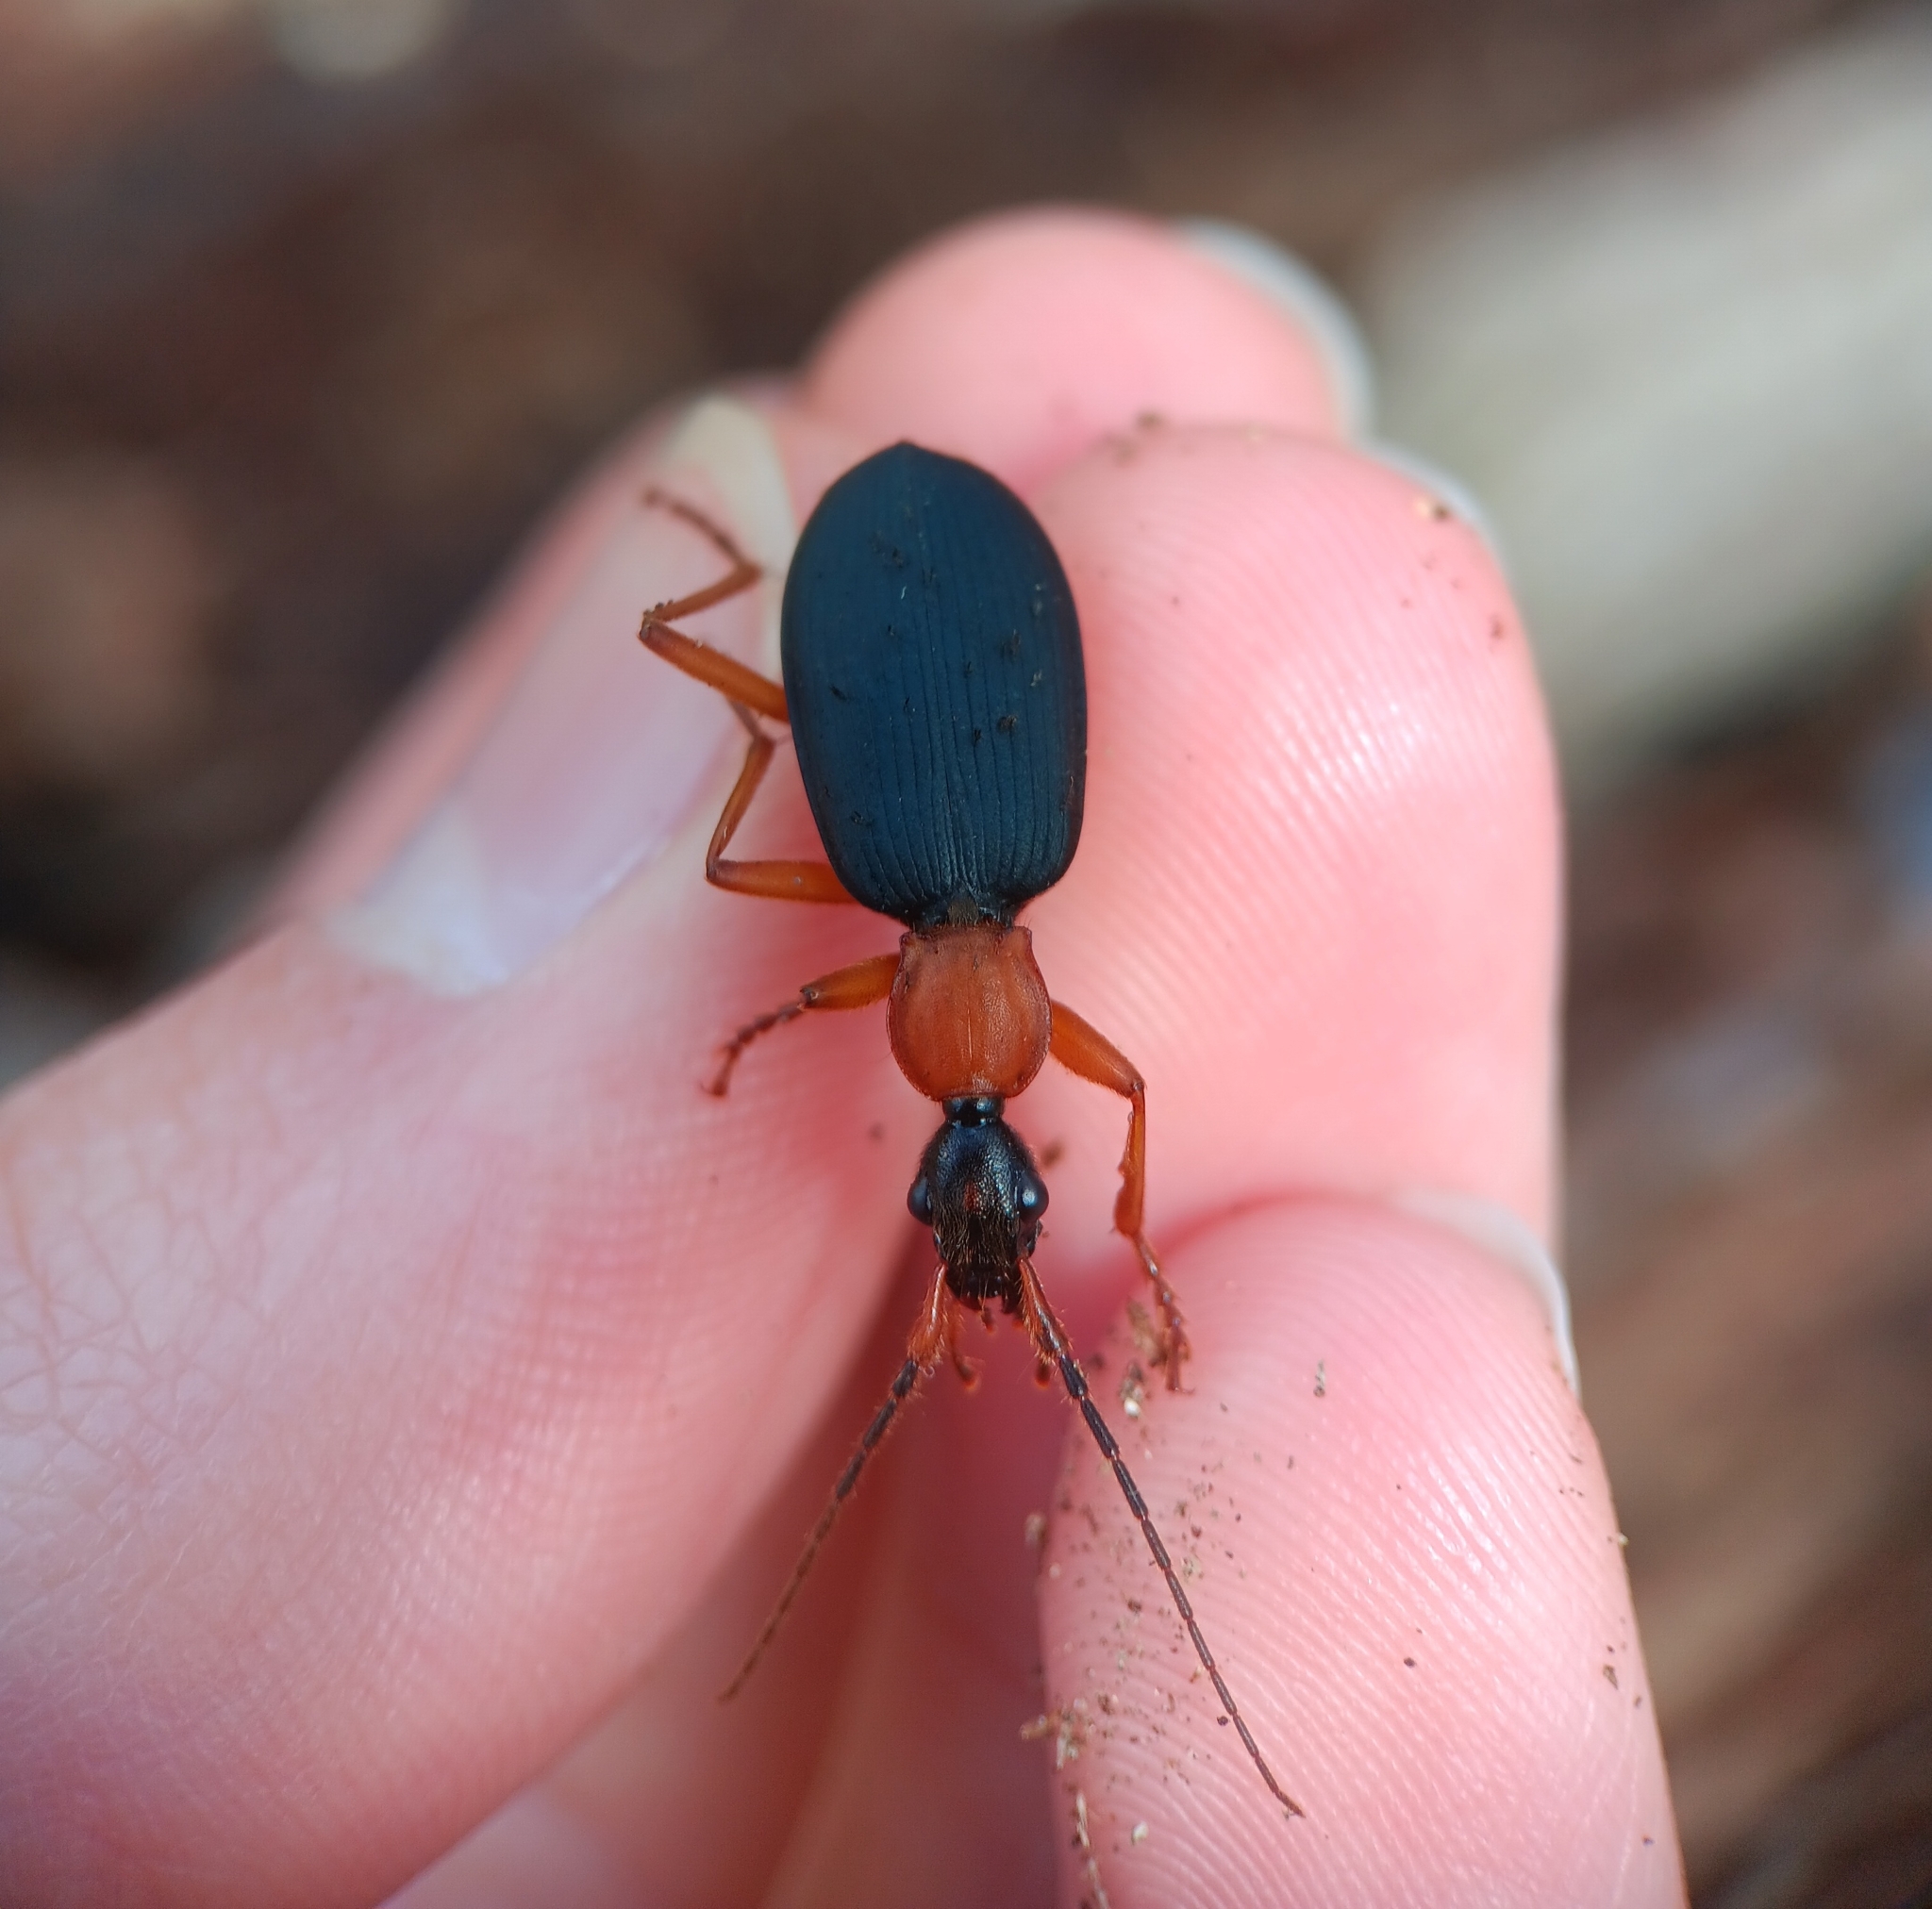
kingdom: Animalia
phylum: Arthropoda
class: Insecta
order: Coleoptera
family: Carabidae
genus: Galerita
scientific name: Galerita bicolor
